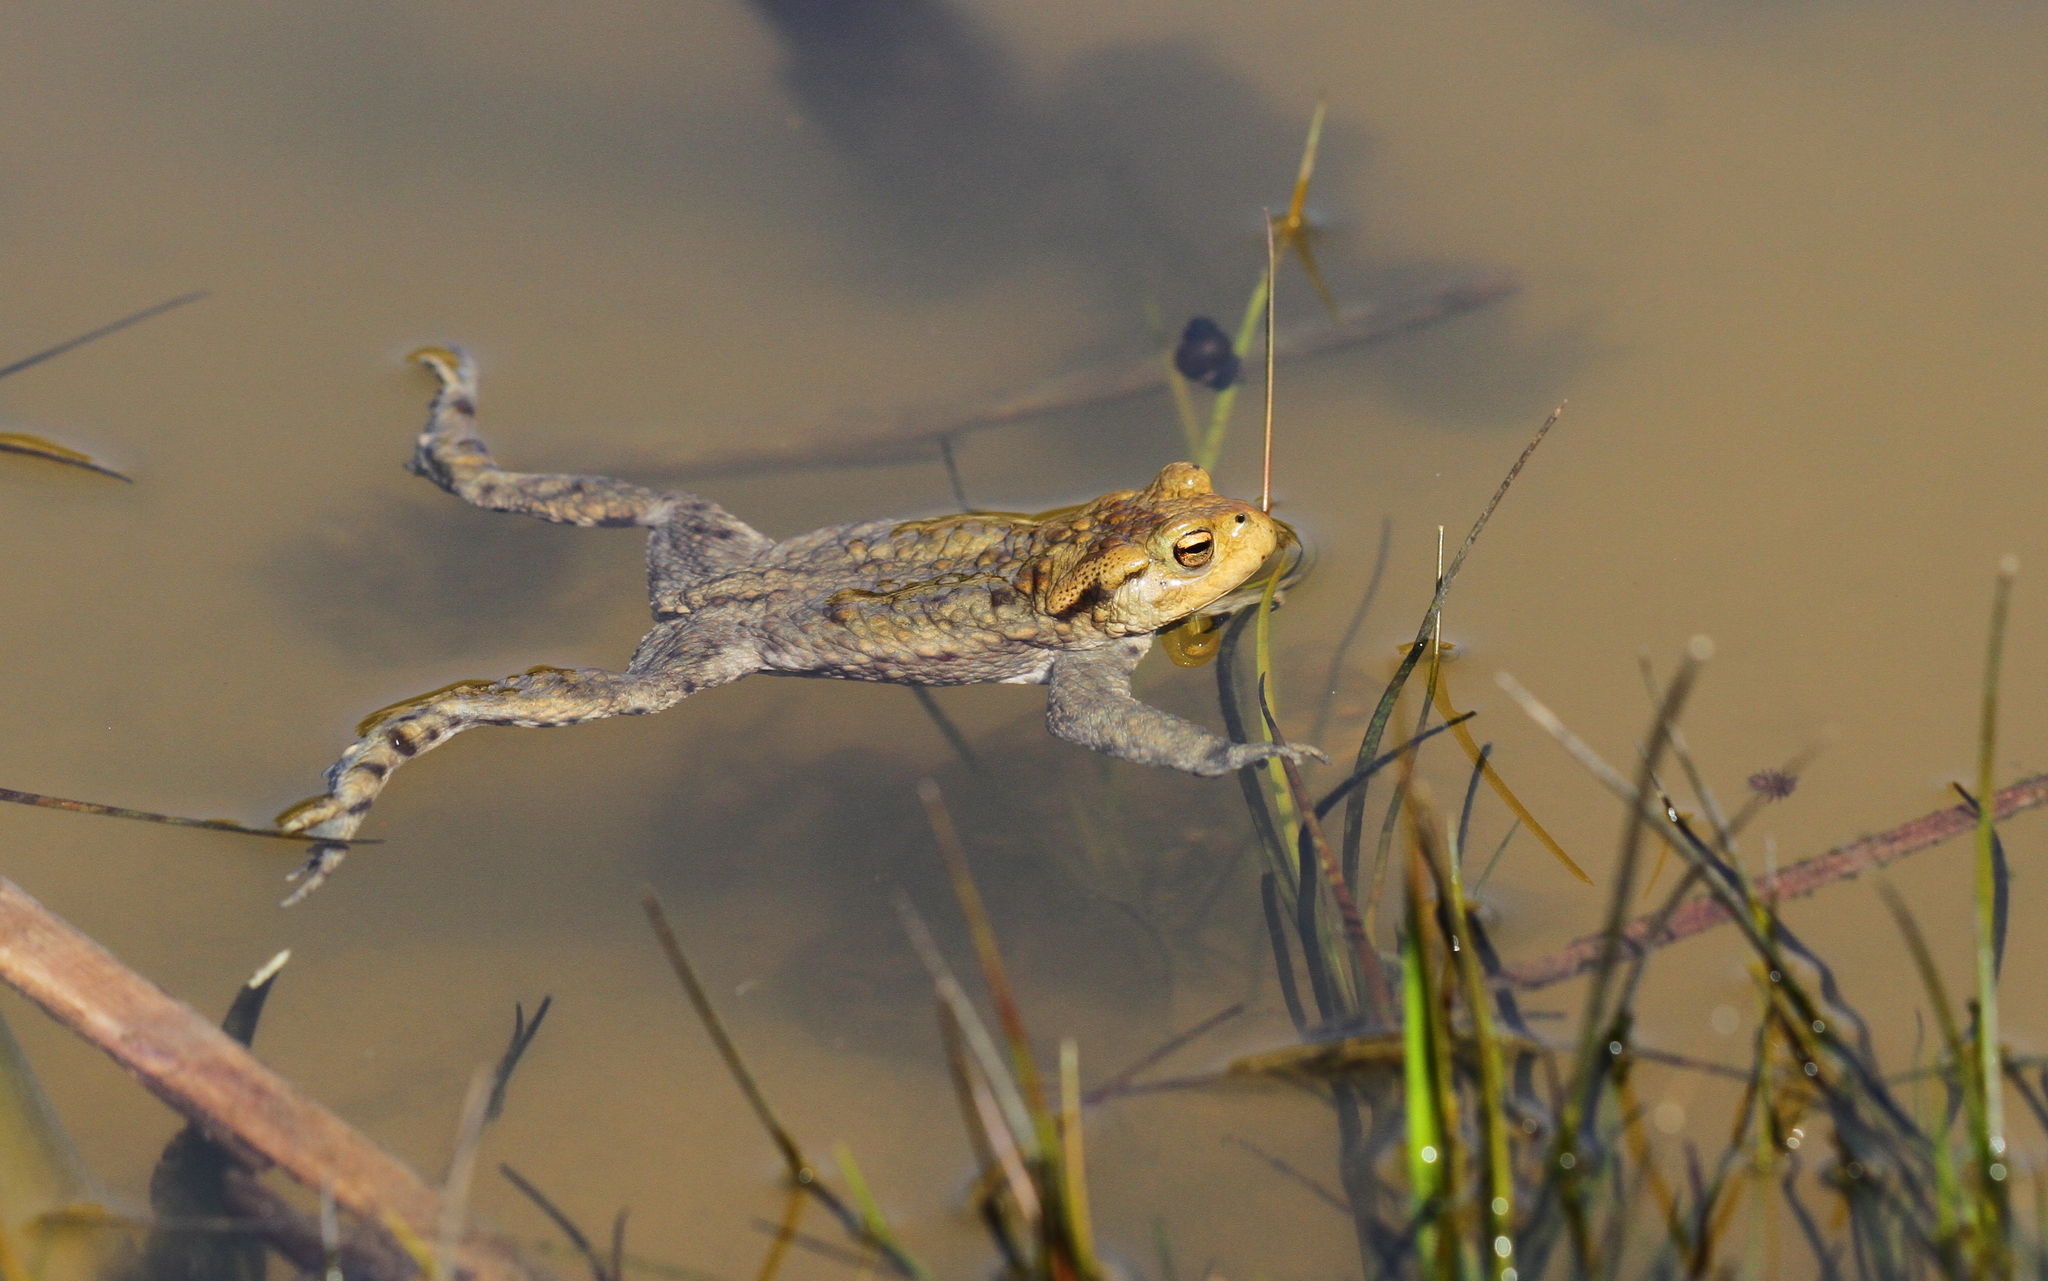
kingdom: Animalia
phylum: Chordata
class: Amphibia
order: Anura
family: Bufonidae
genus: Bufo
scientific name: Bufo bufo
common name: Common toad
